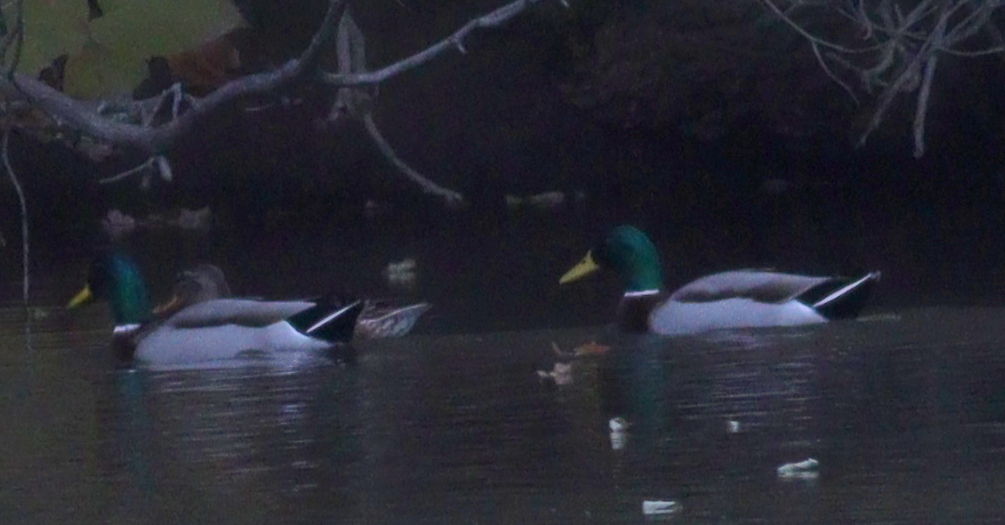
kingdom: Animalia
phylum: Chordata
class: Aves
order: Anseriformes
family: Anatidae
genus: Anas
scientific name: Anas platyrhynchos
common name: Mallard
